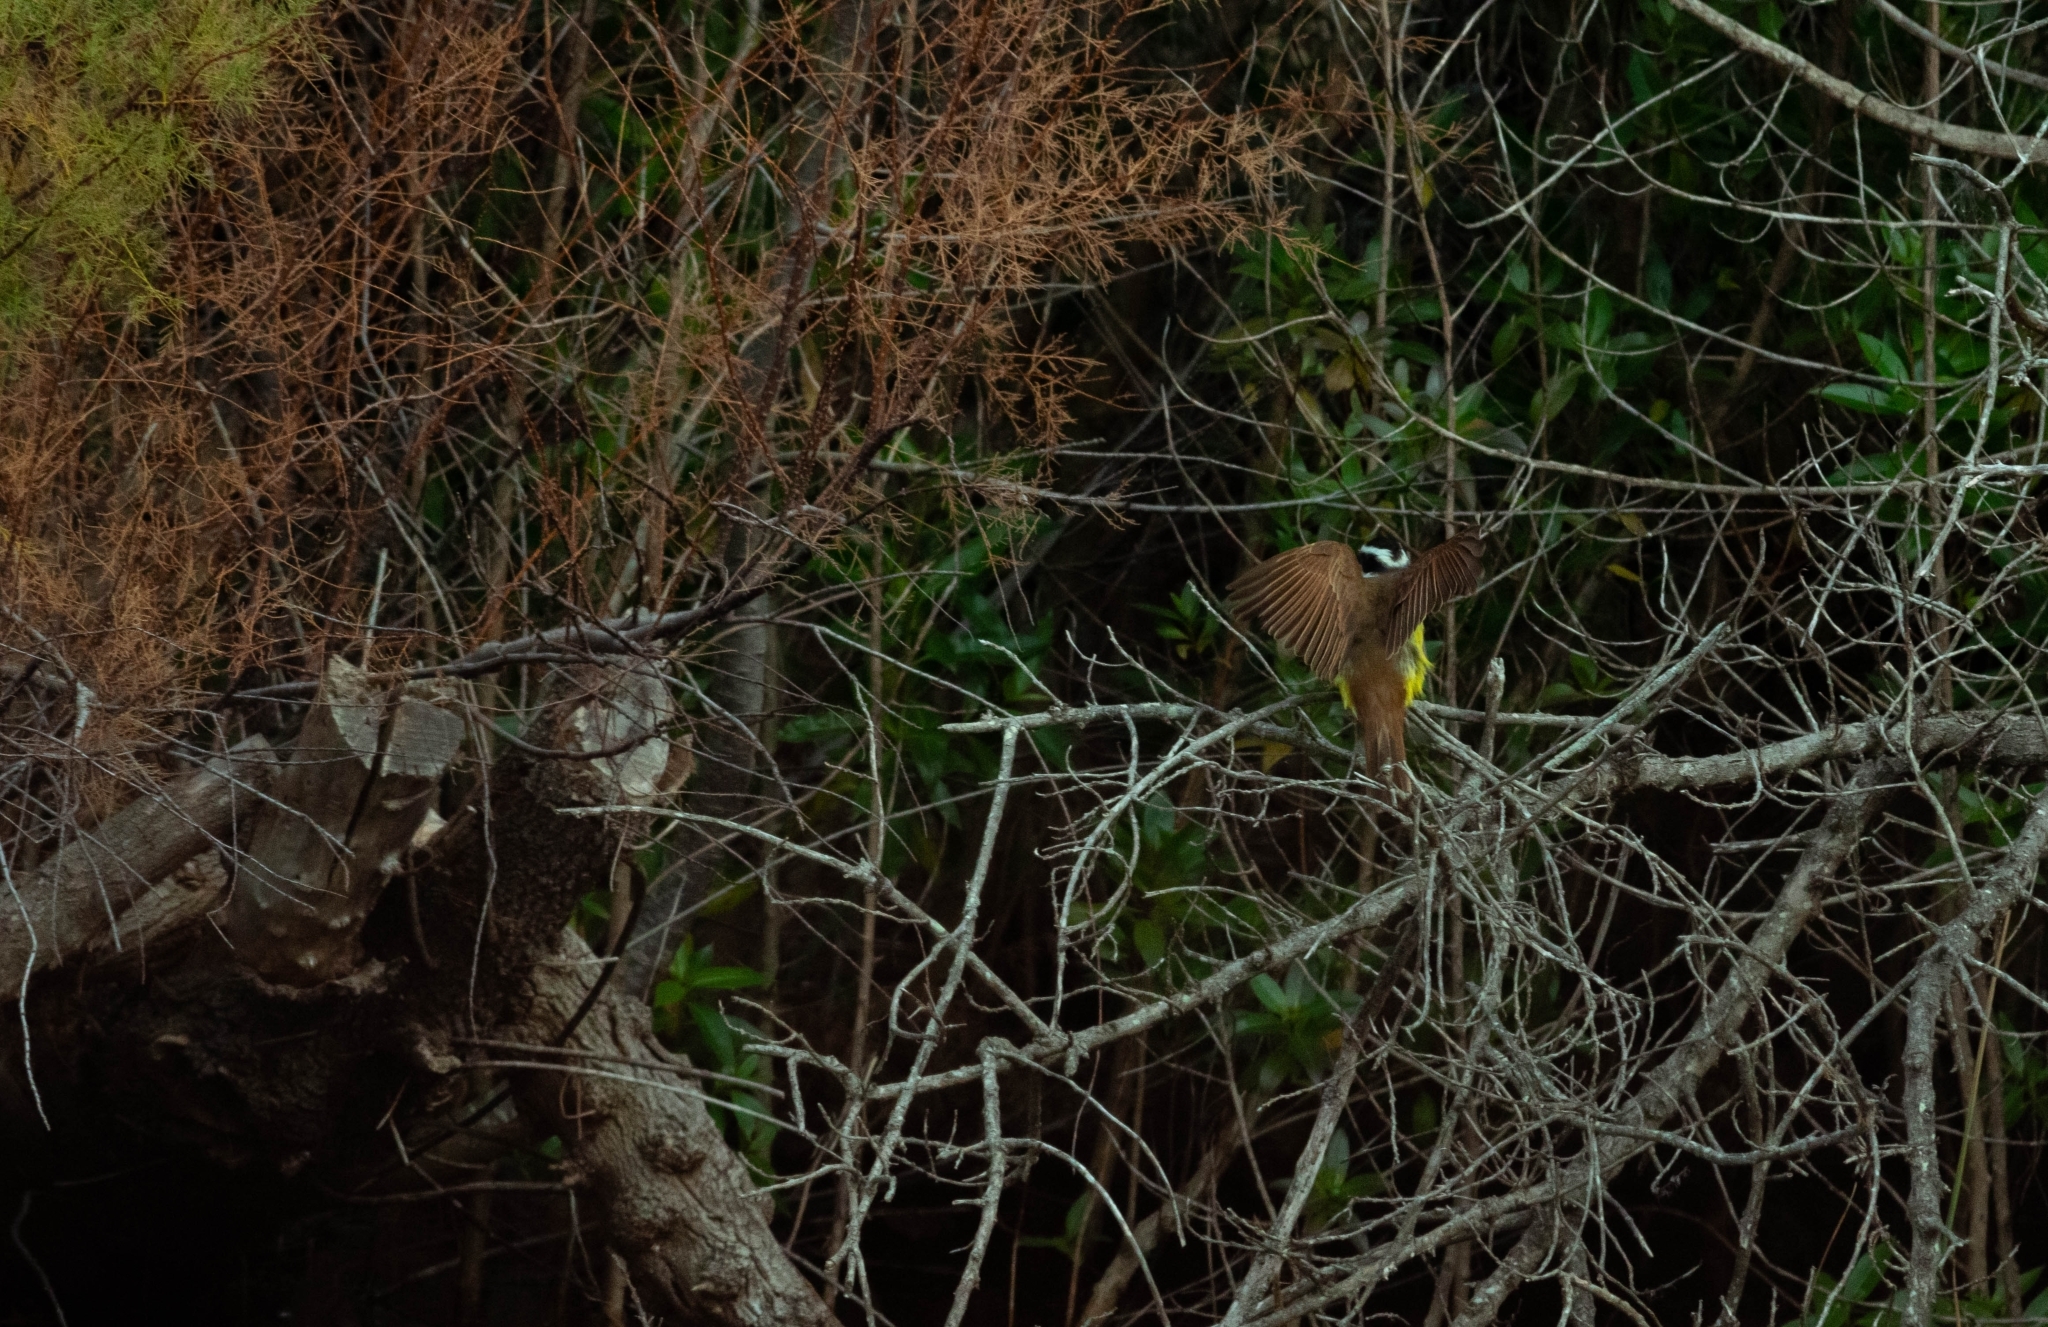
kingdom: Animalia
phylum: Chordata
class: Aves
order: Passeriformes
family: Tyrannidae
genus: Pitangus
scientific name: Pitangus sulphuratus
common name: Great kiskadee
